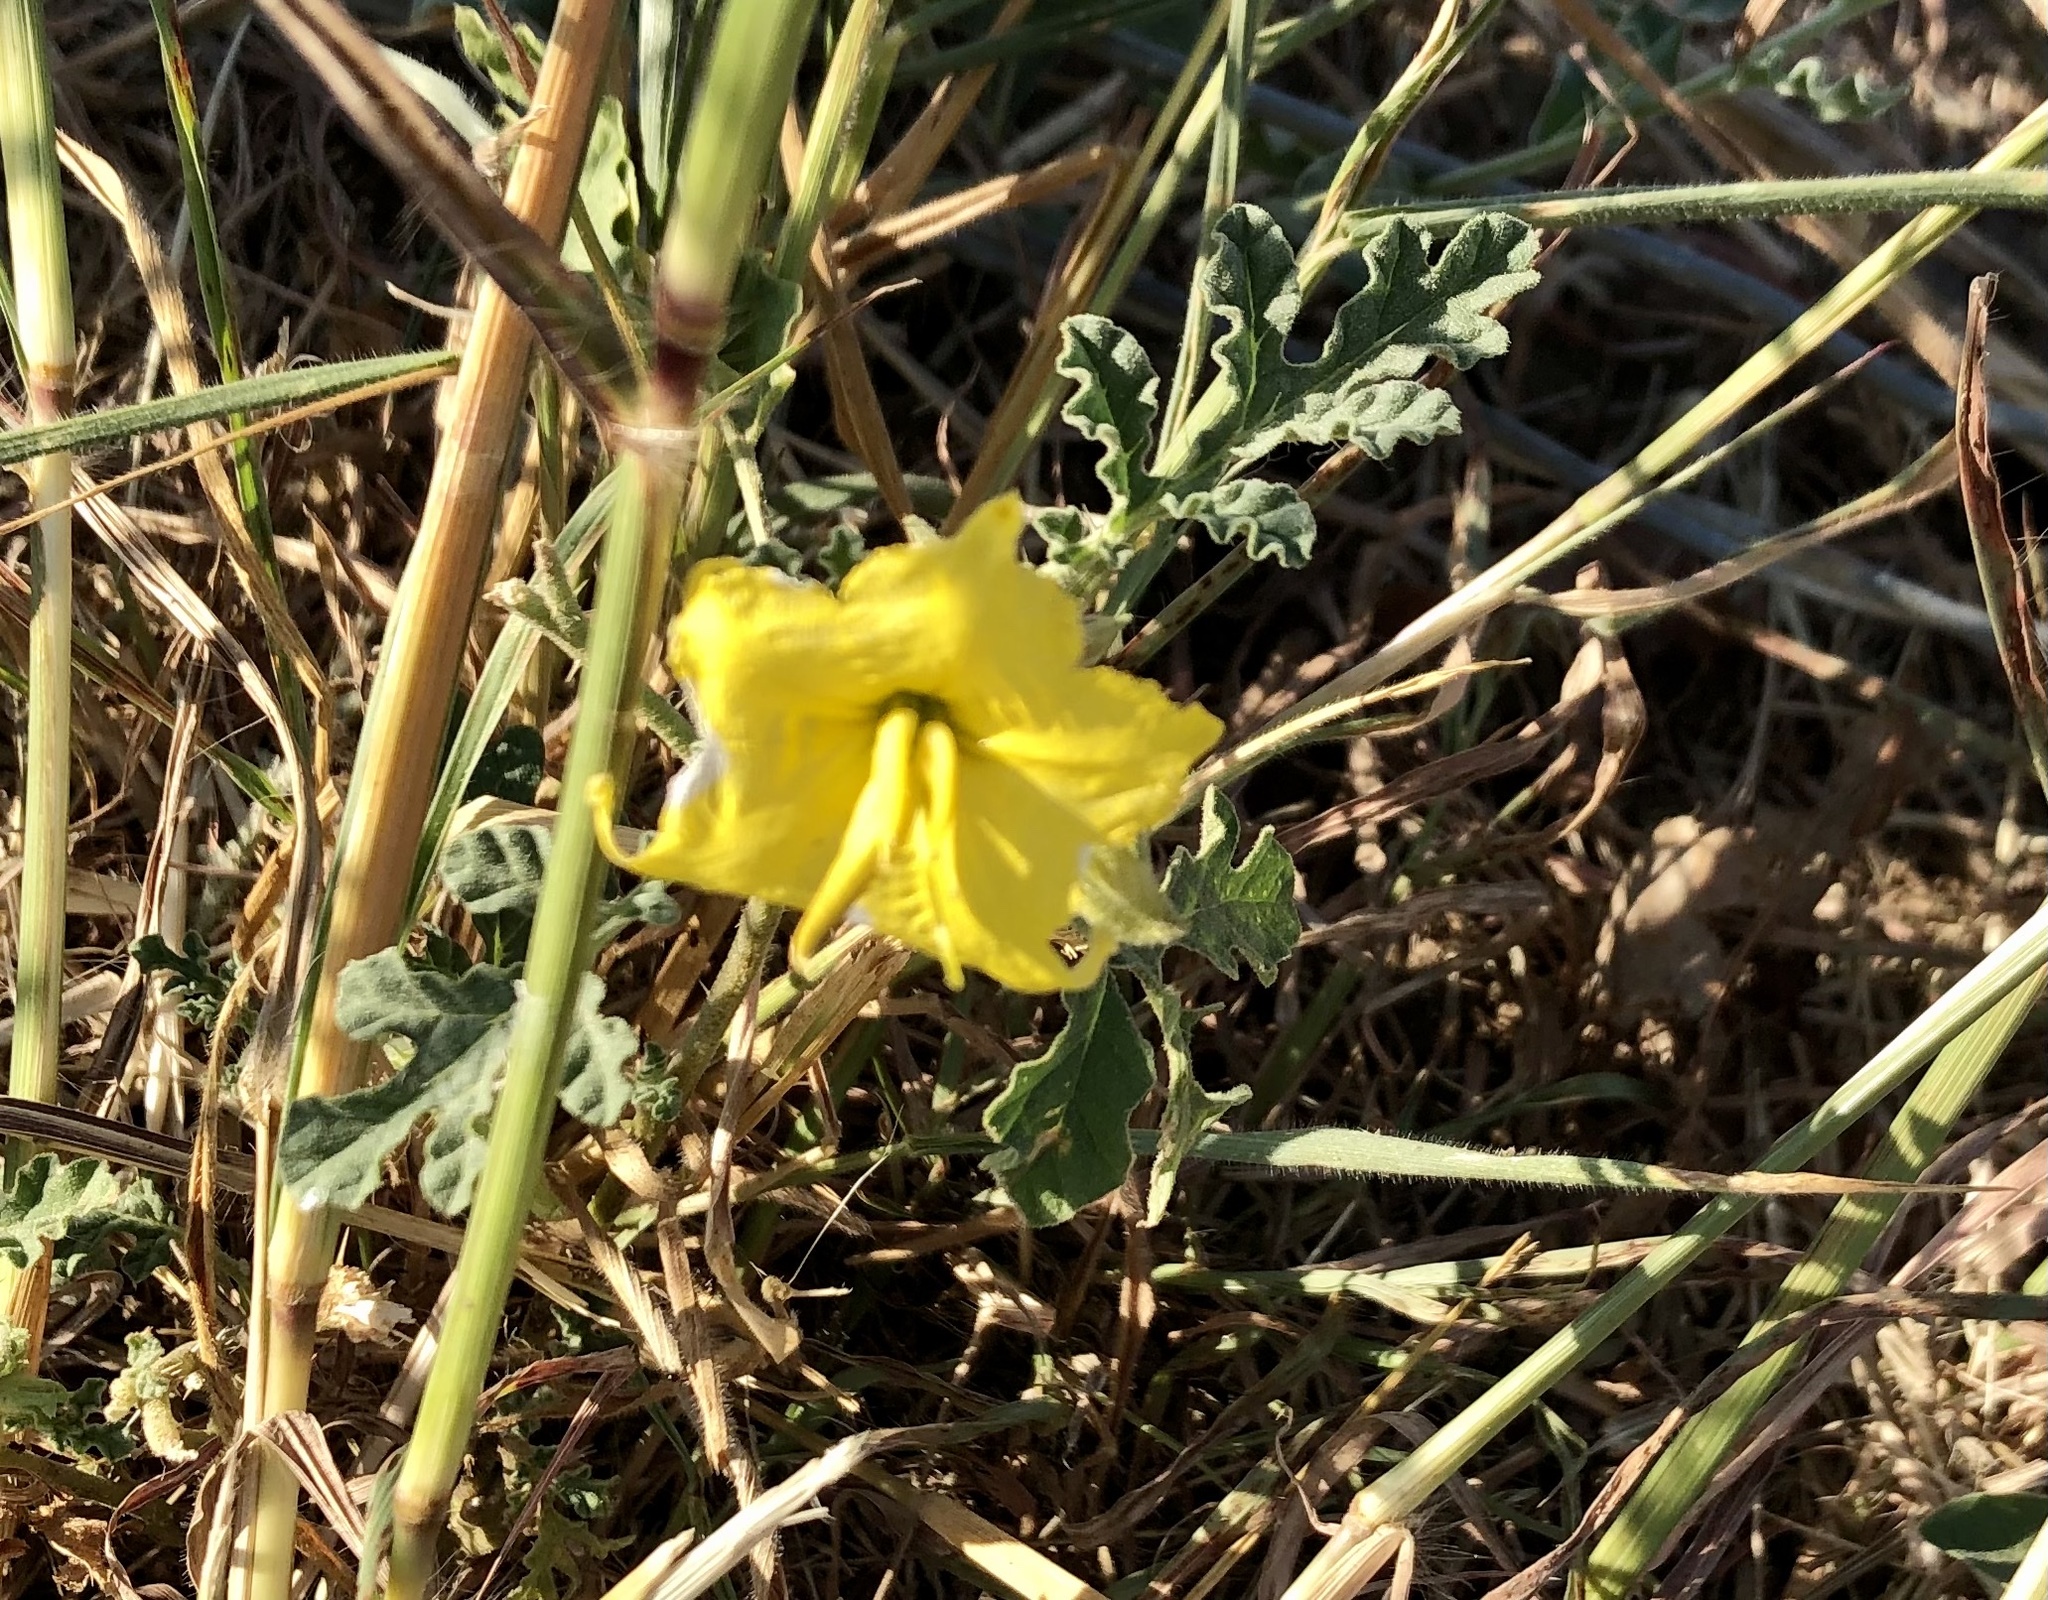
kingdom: Plantae
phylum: Tracheophyta
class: Magnoliopsida
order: Solanales
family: Solanaceae
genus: Solanum
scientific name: Solanum angustifolium
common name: Buffalobur nightshade
